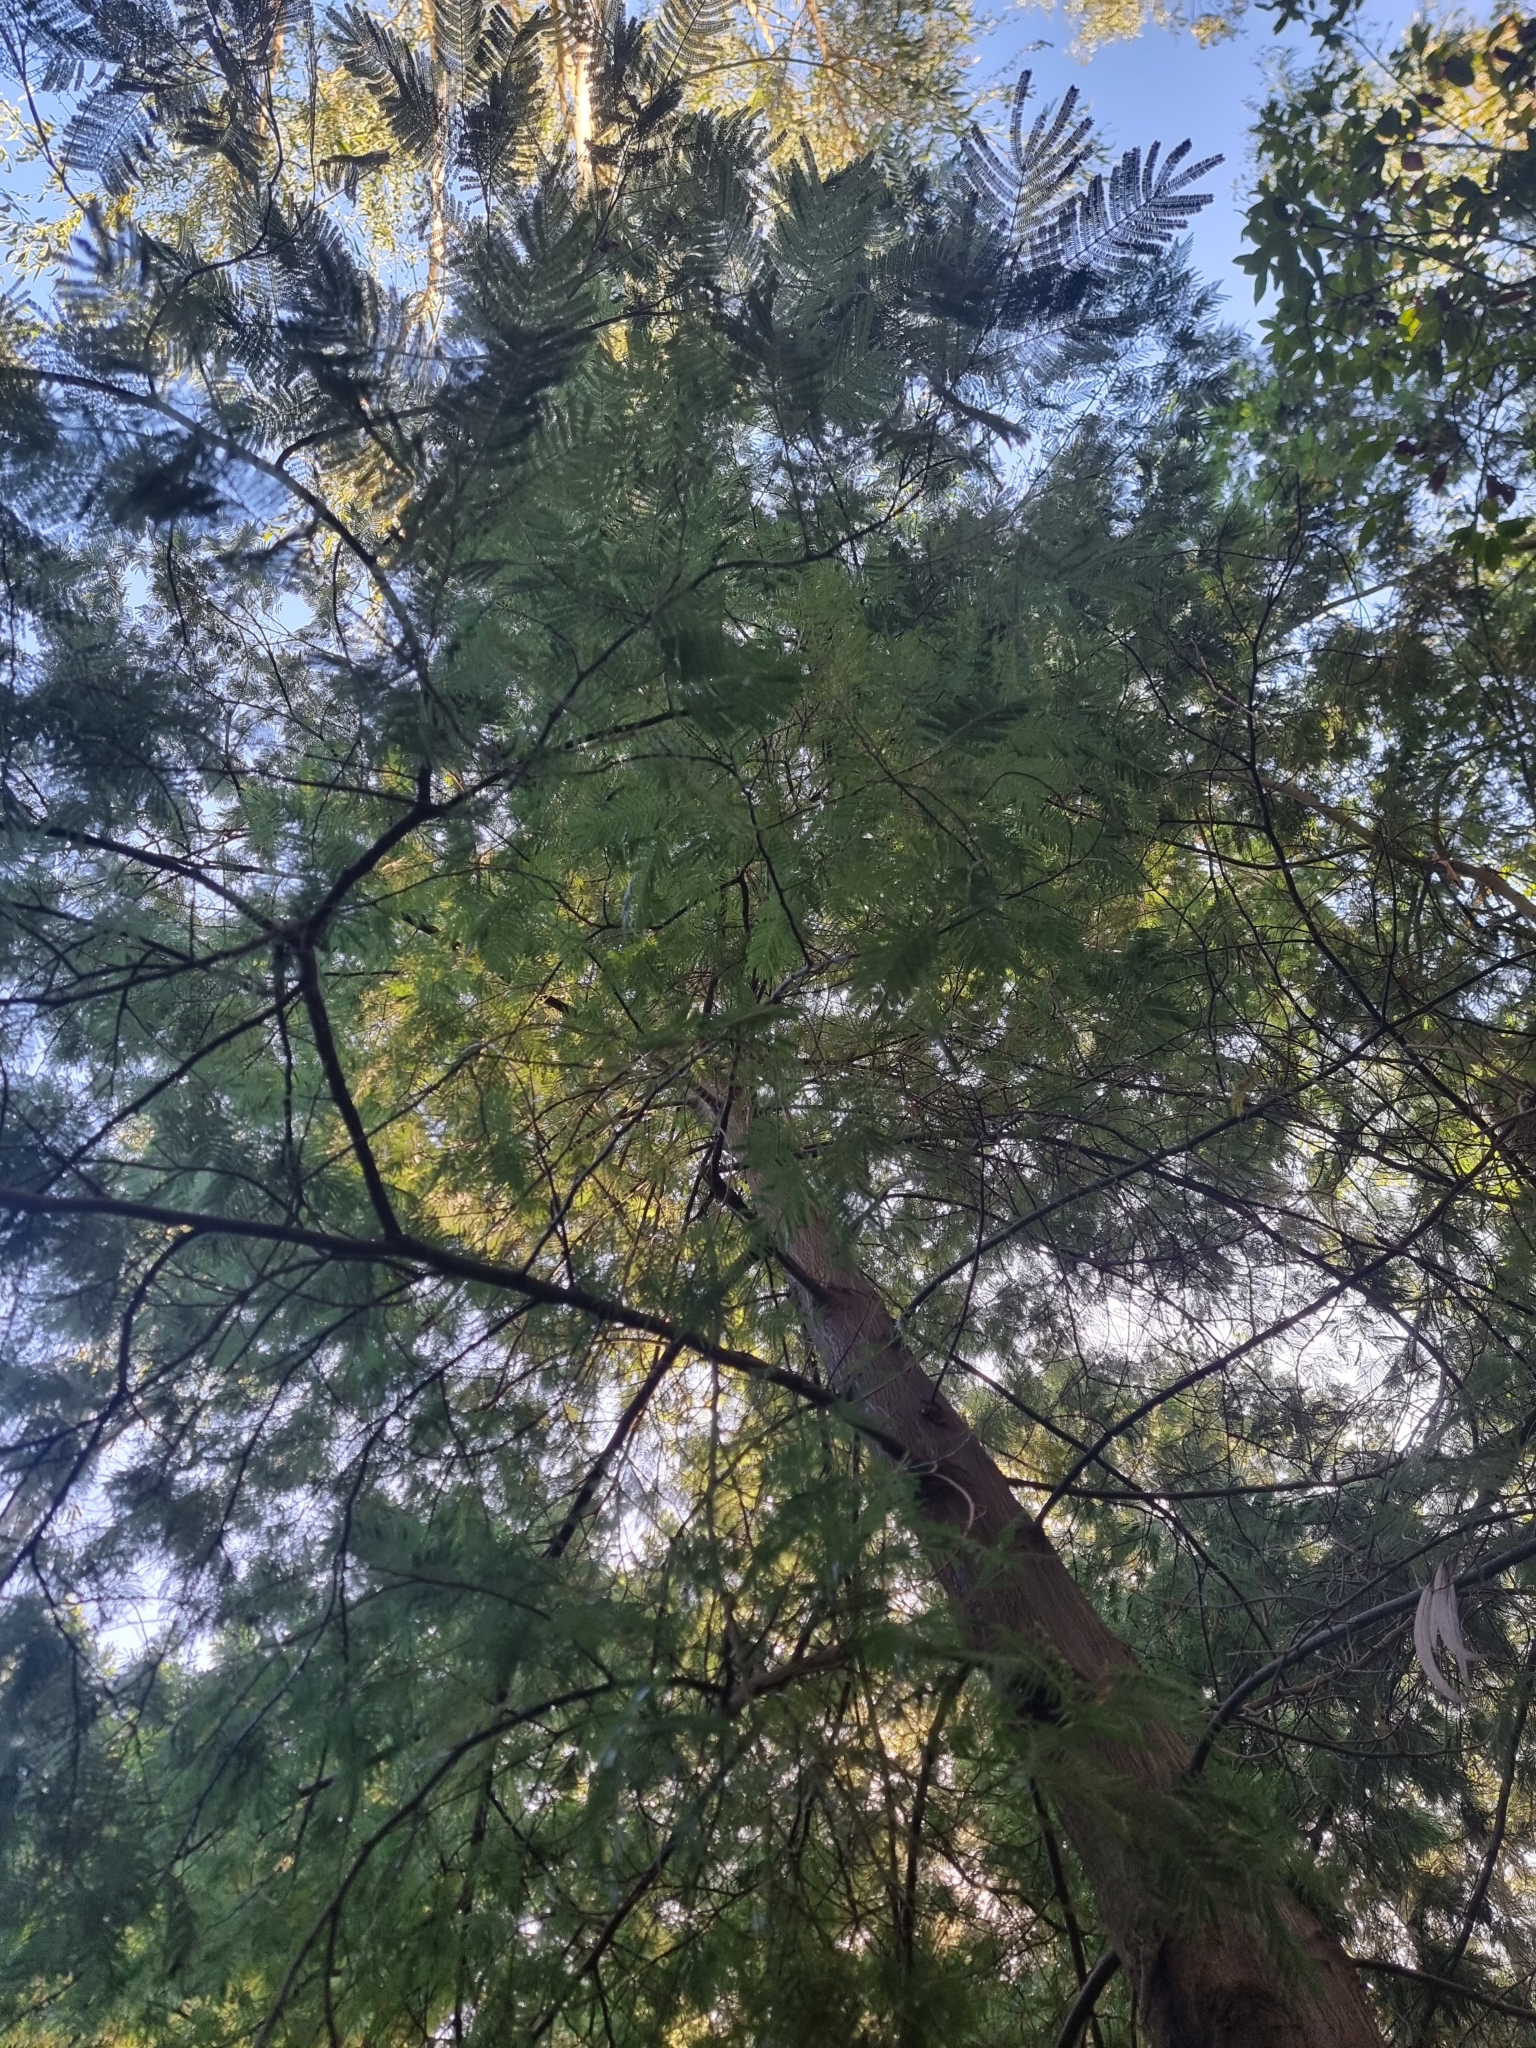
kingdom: Plantae
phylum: Tracheophyta
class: Magnoliopsida
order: Fabales
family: Fabaceae
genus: Acacia
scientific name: Acacia mearnsii
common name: Black wattle
